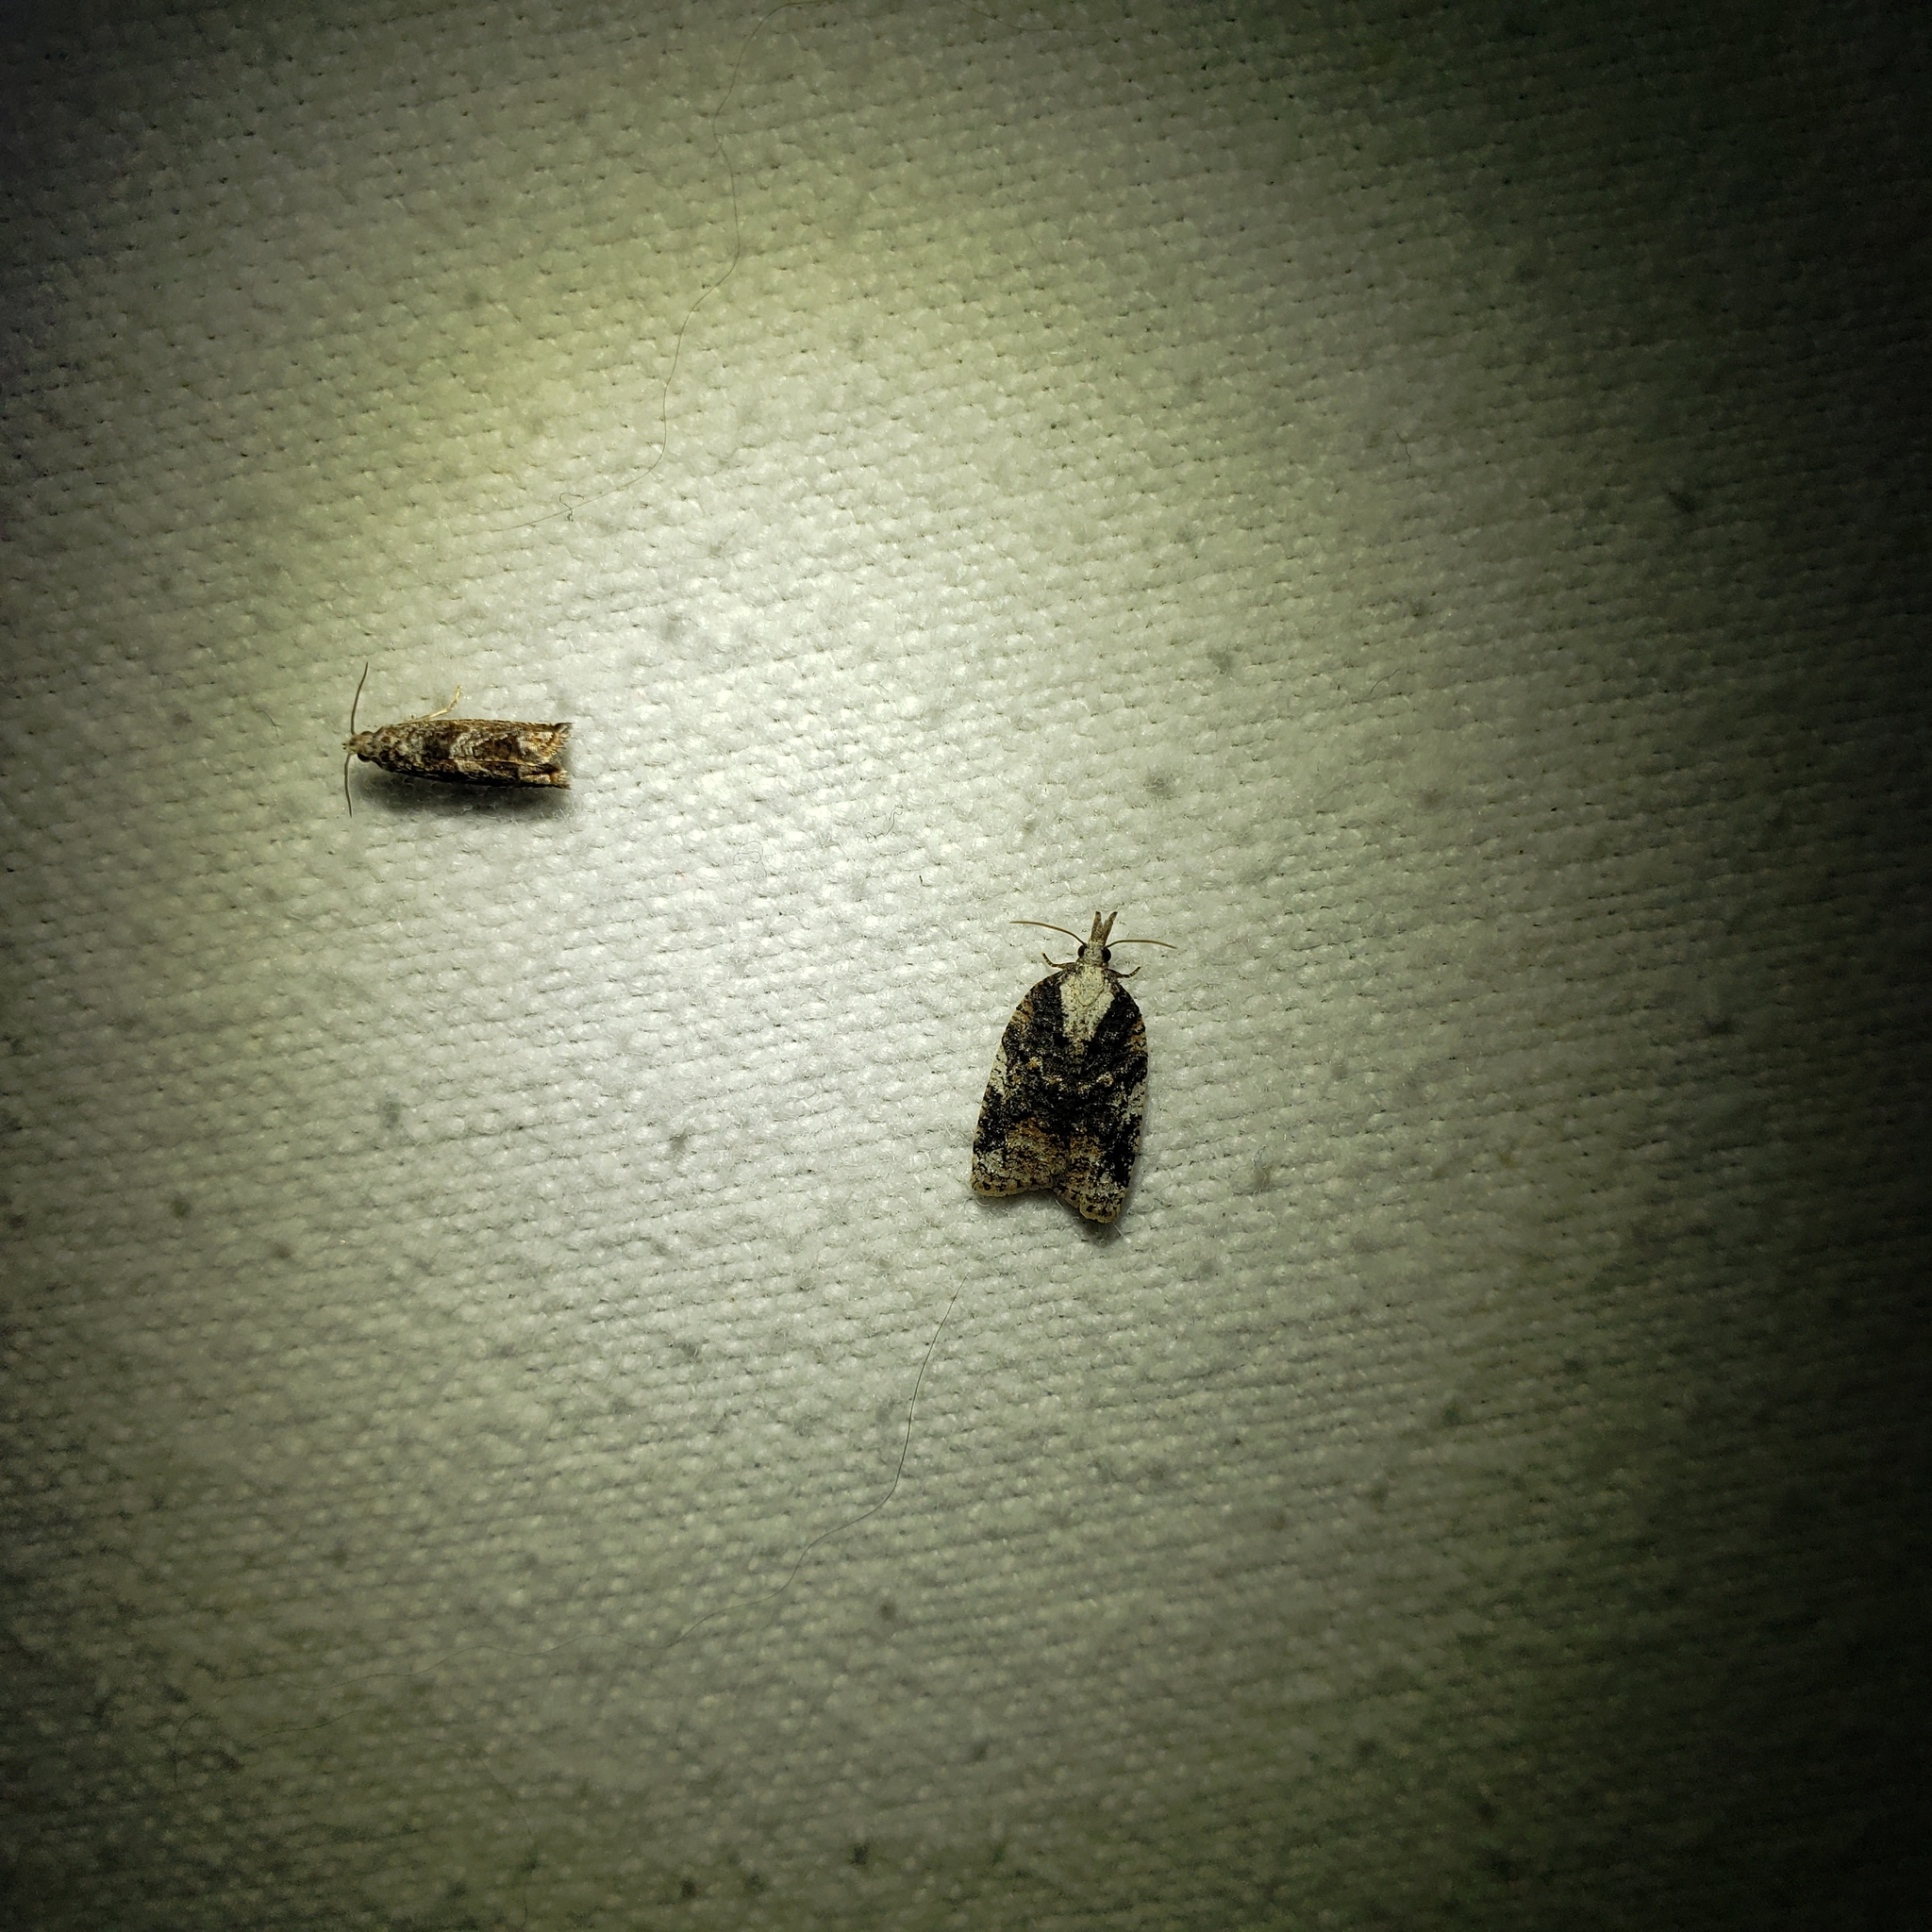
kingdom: Animalia
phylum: Arthropoda
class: Insecta
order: Lepidoptera
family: Tortricidae
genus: Platynota
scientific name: Platynota exasperatana
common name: Exasperating platynota moth
